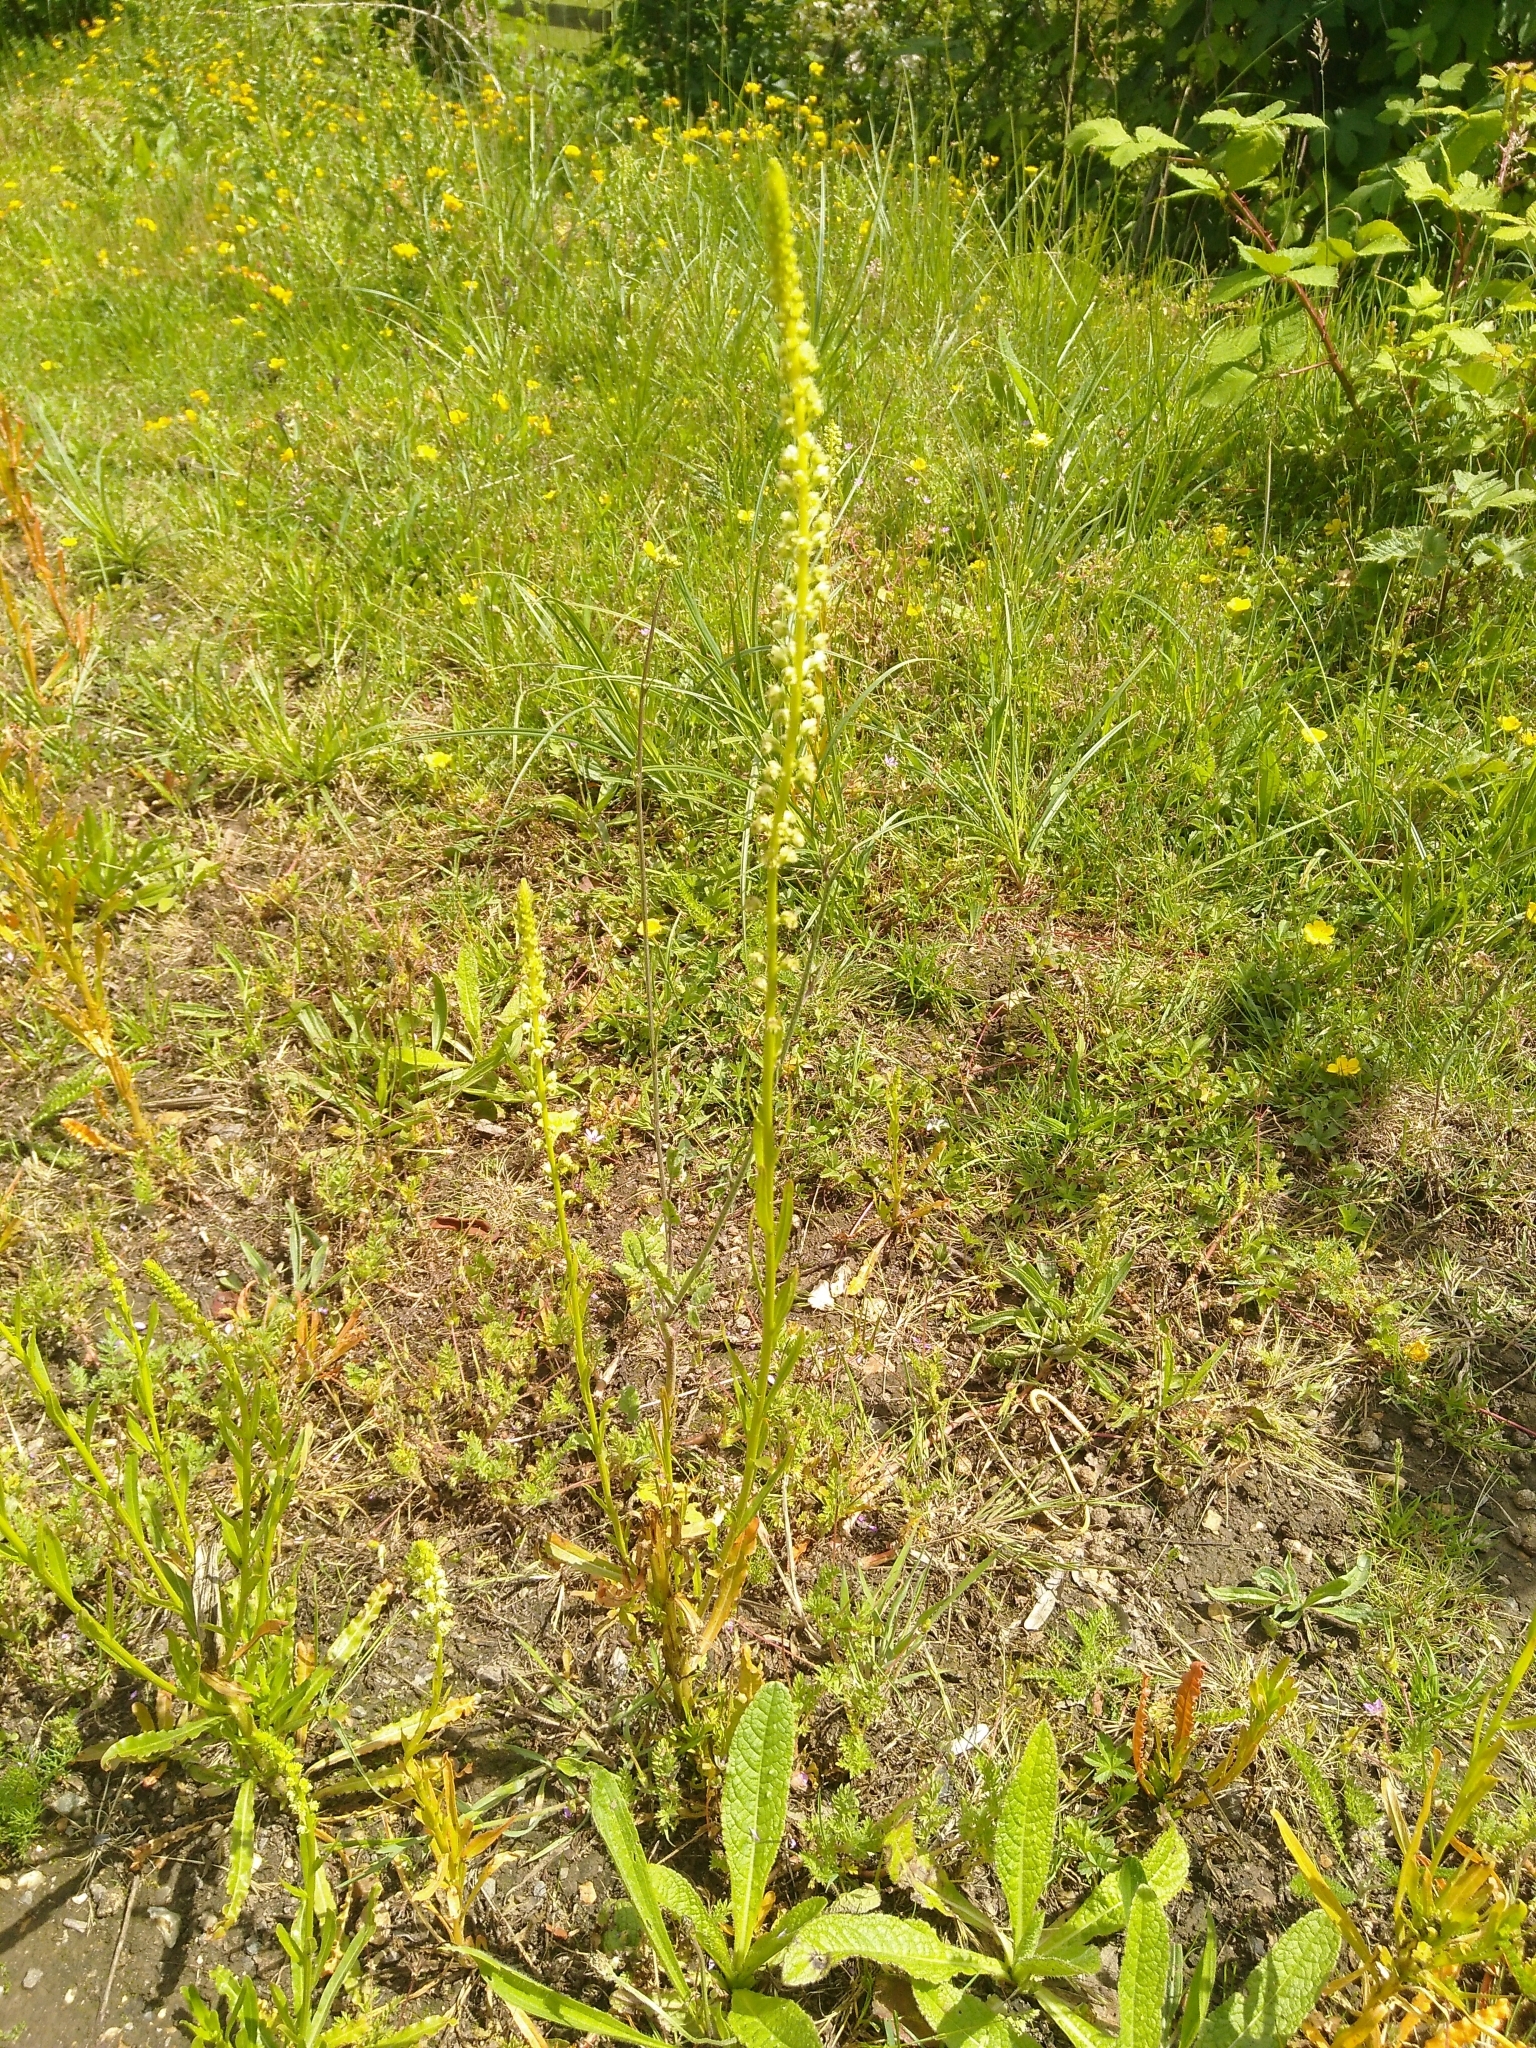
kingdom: Plantae
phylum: Tracheophyta
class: Magnoliopsida
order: Brassicales
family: Resedaceae
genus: Reseda
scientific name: Reseda luteola
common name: Weld
